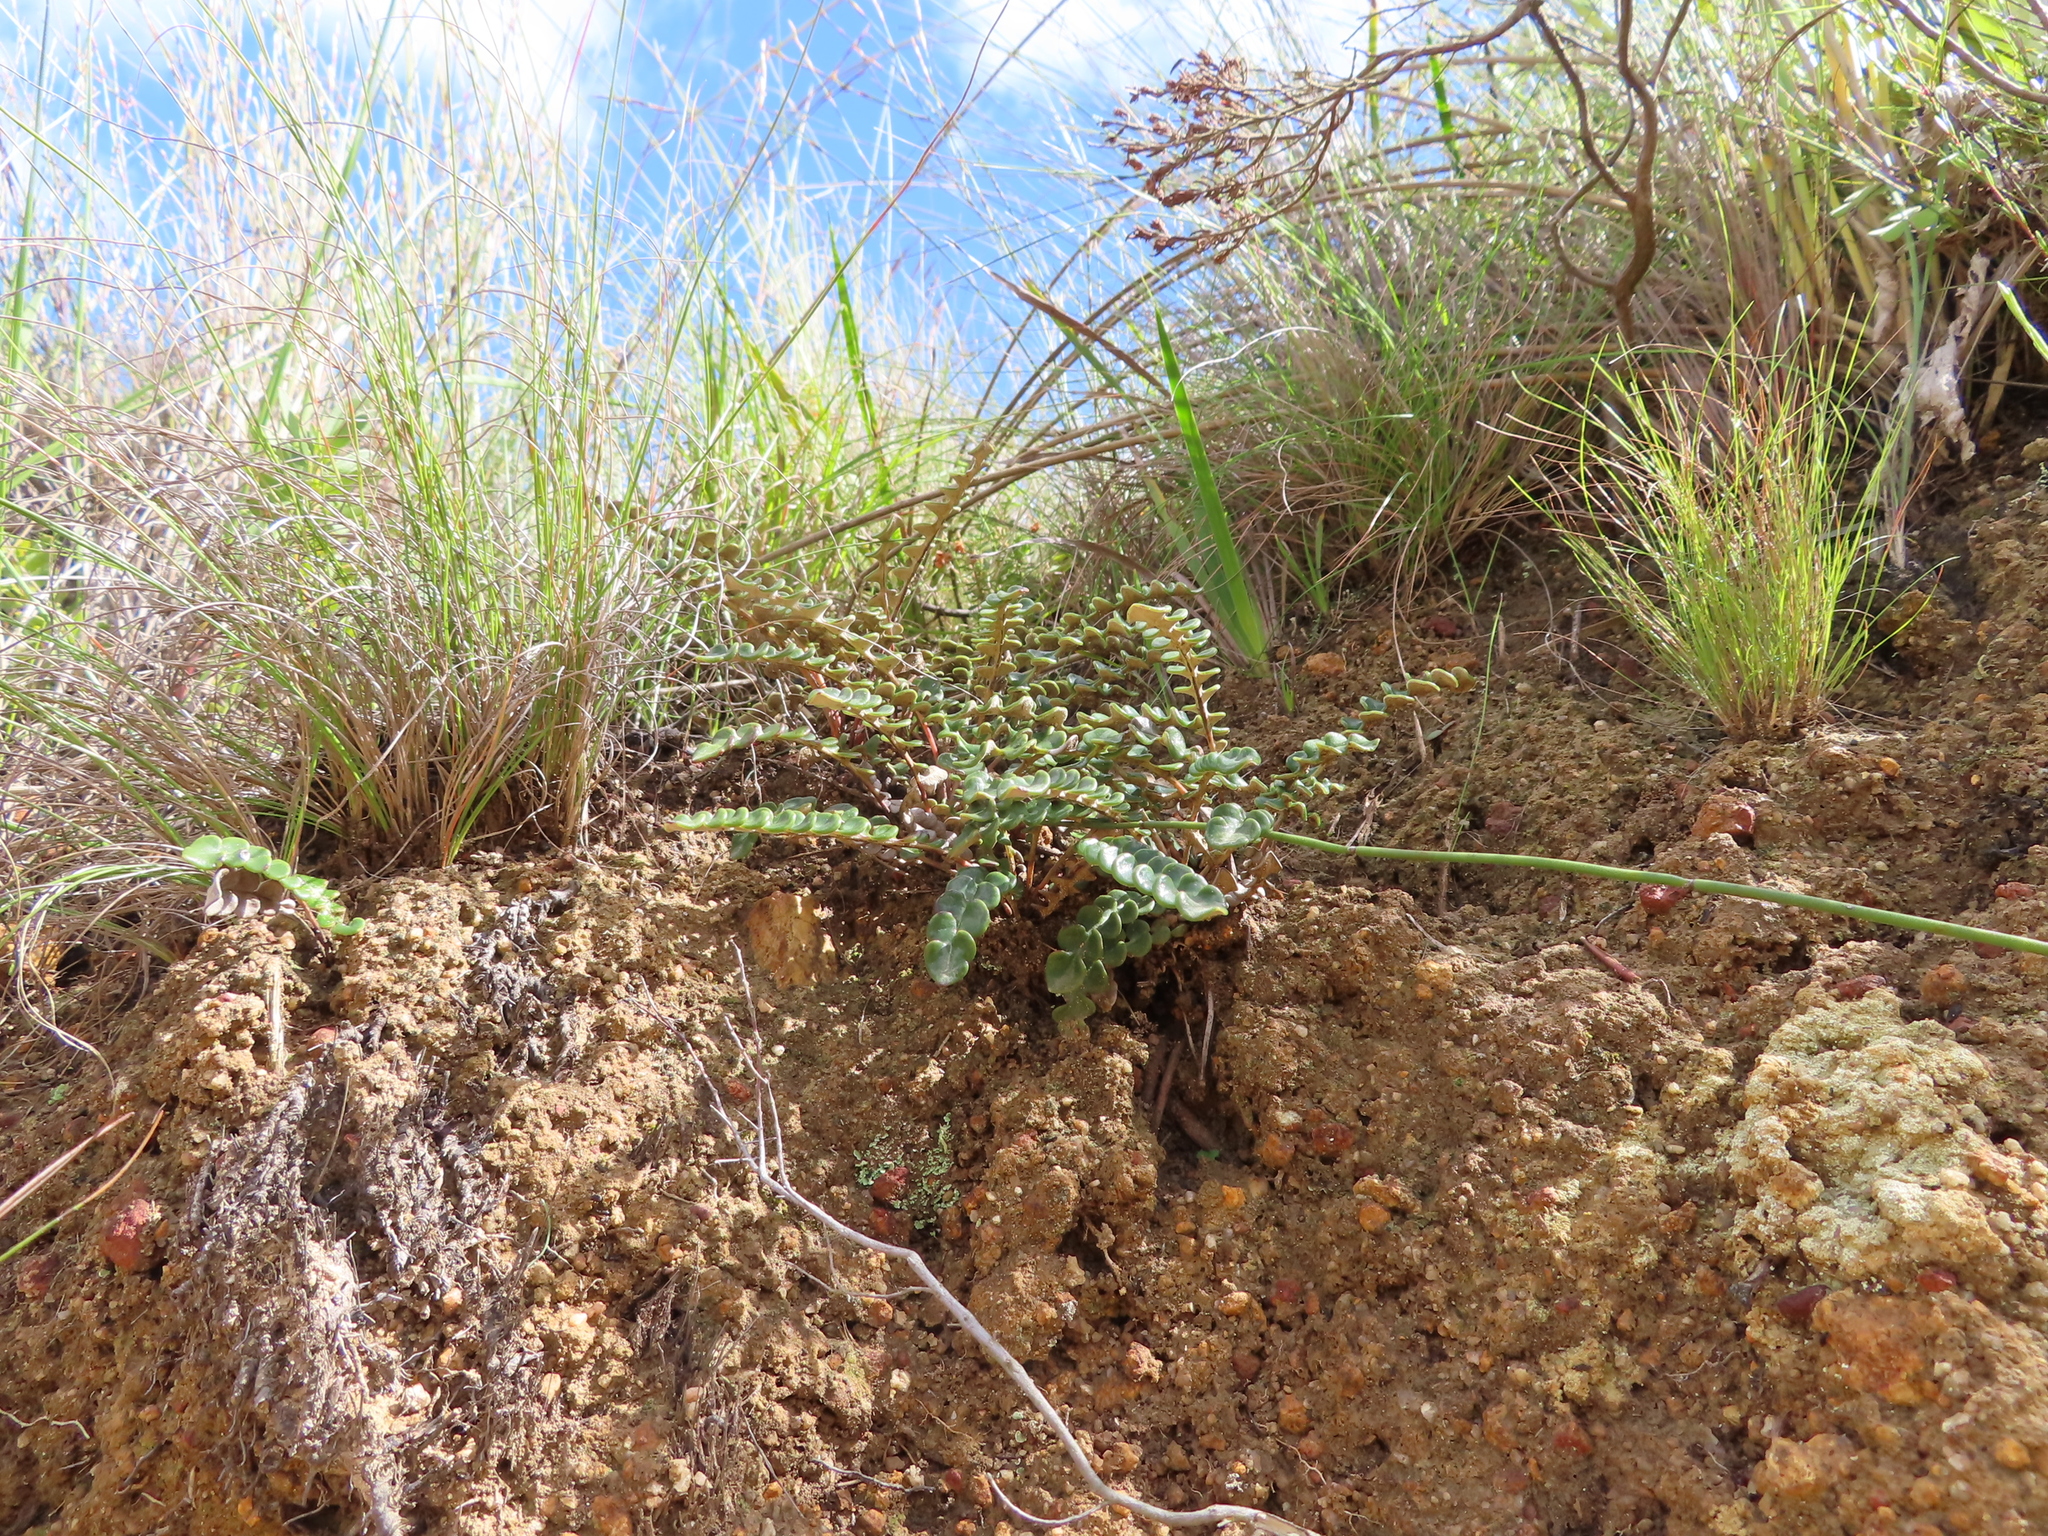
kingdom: Plantae
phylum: Tracheophyta
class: Magnoliopsida
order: Asterales
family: Asteraceae
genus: Gerbera
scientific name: Gerbera linnaei
